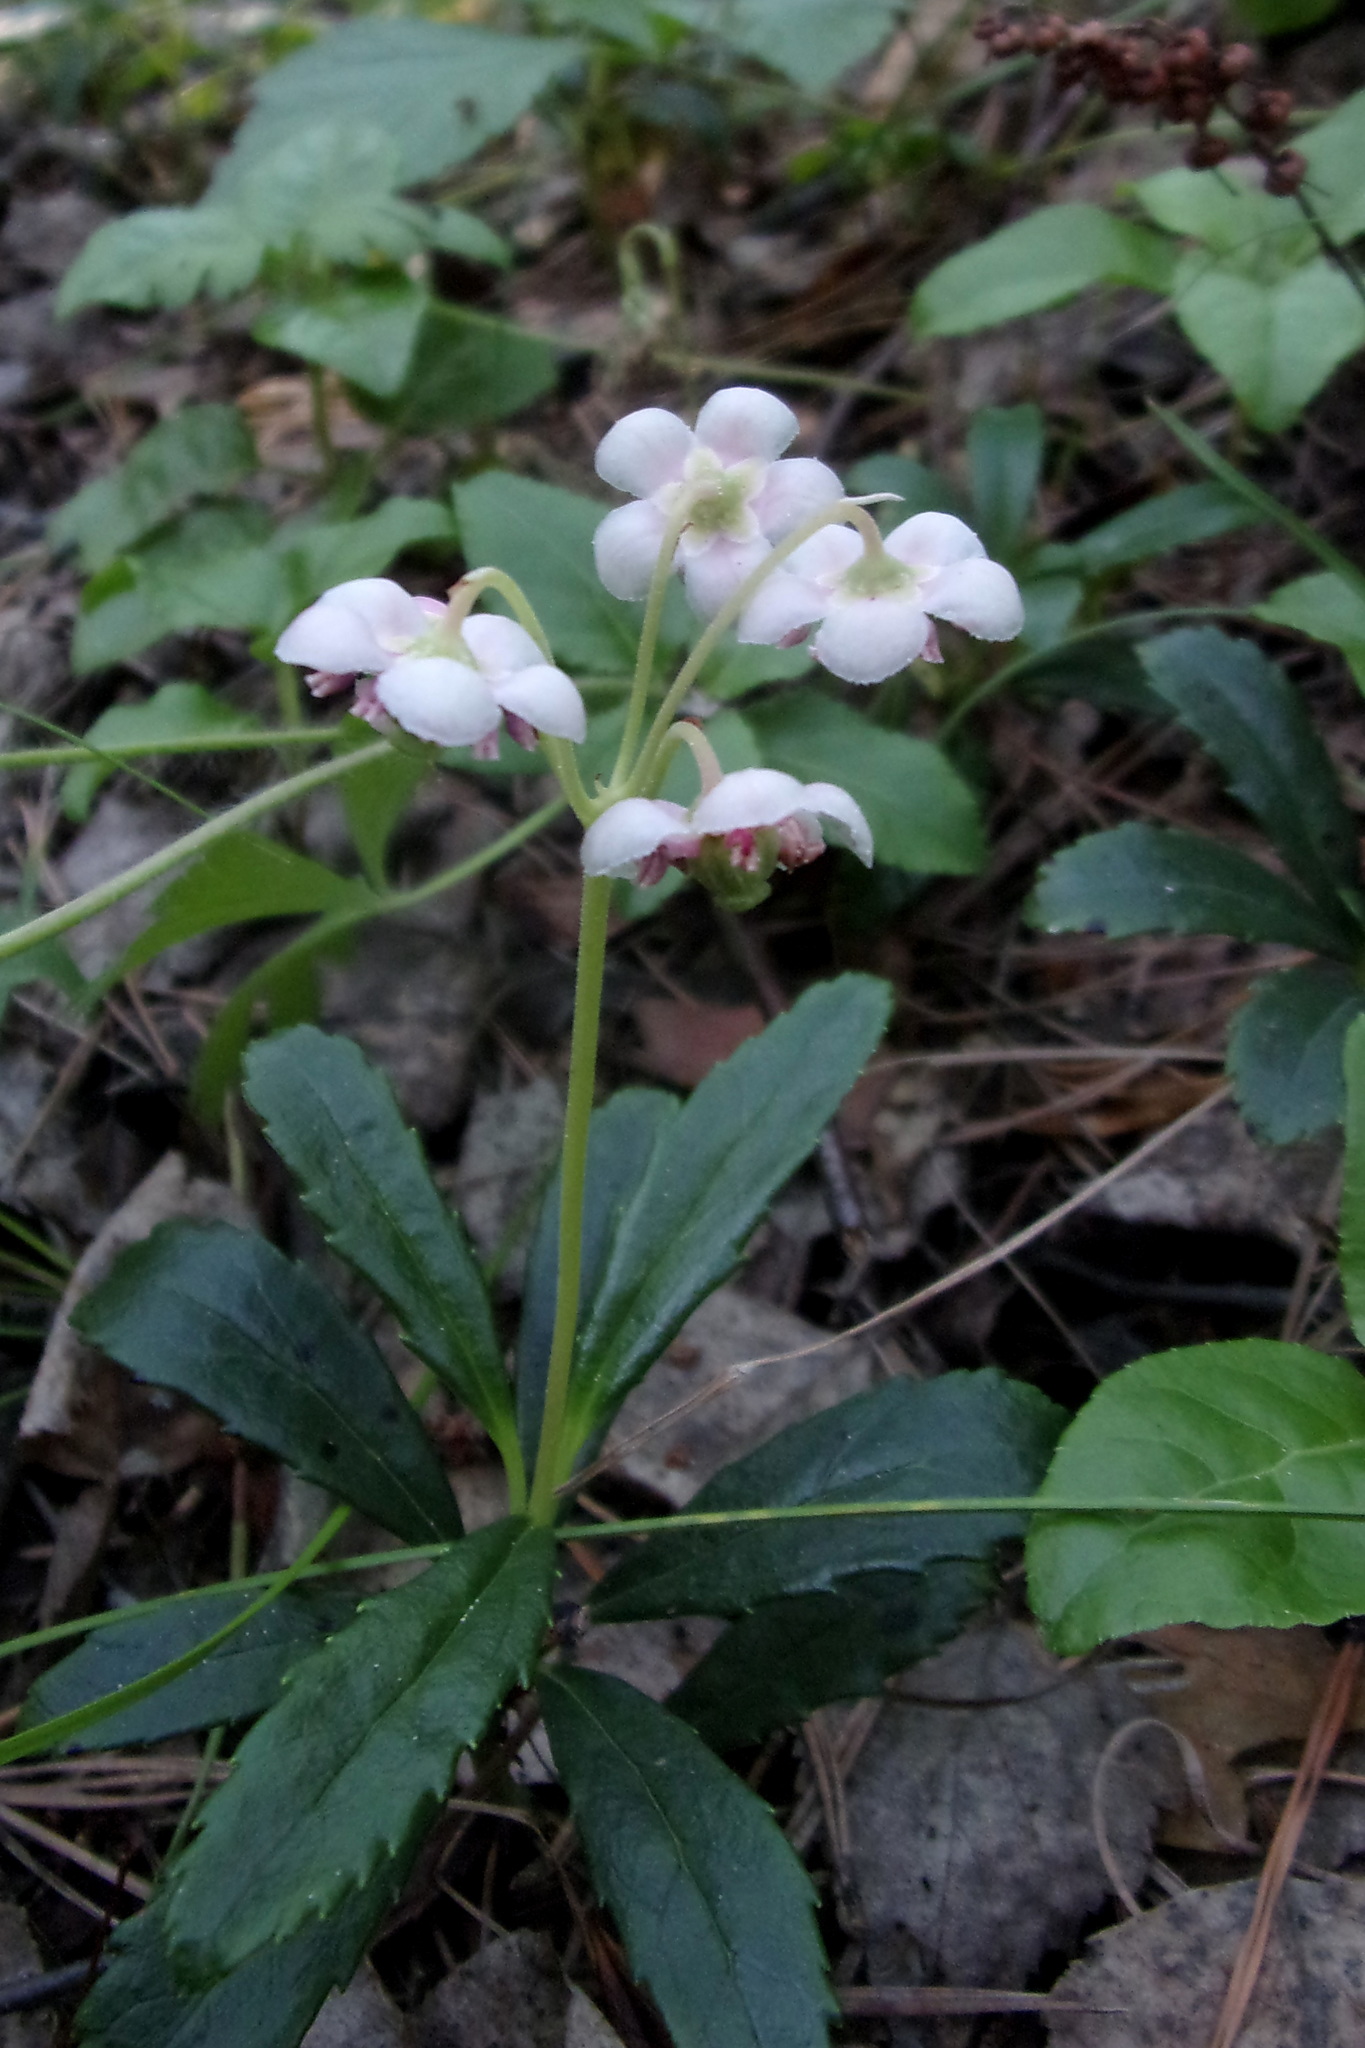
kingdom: Plantae
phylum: Tracheophyta
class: Magnoliopsida
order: Ericales
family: Ericaceae
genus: Chimaphila
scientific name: Chimaphila umbellata
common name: Pipsissewa
